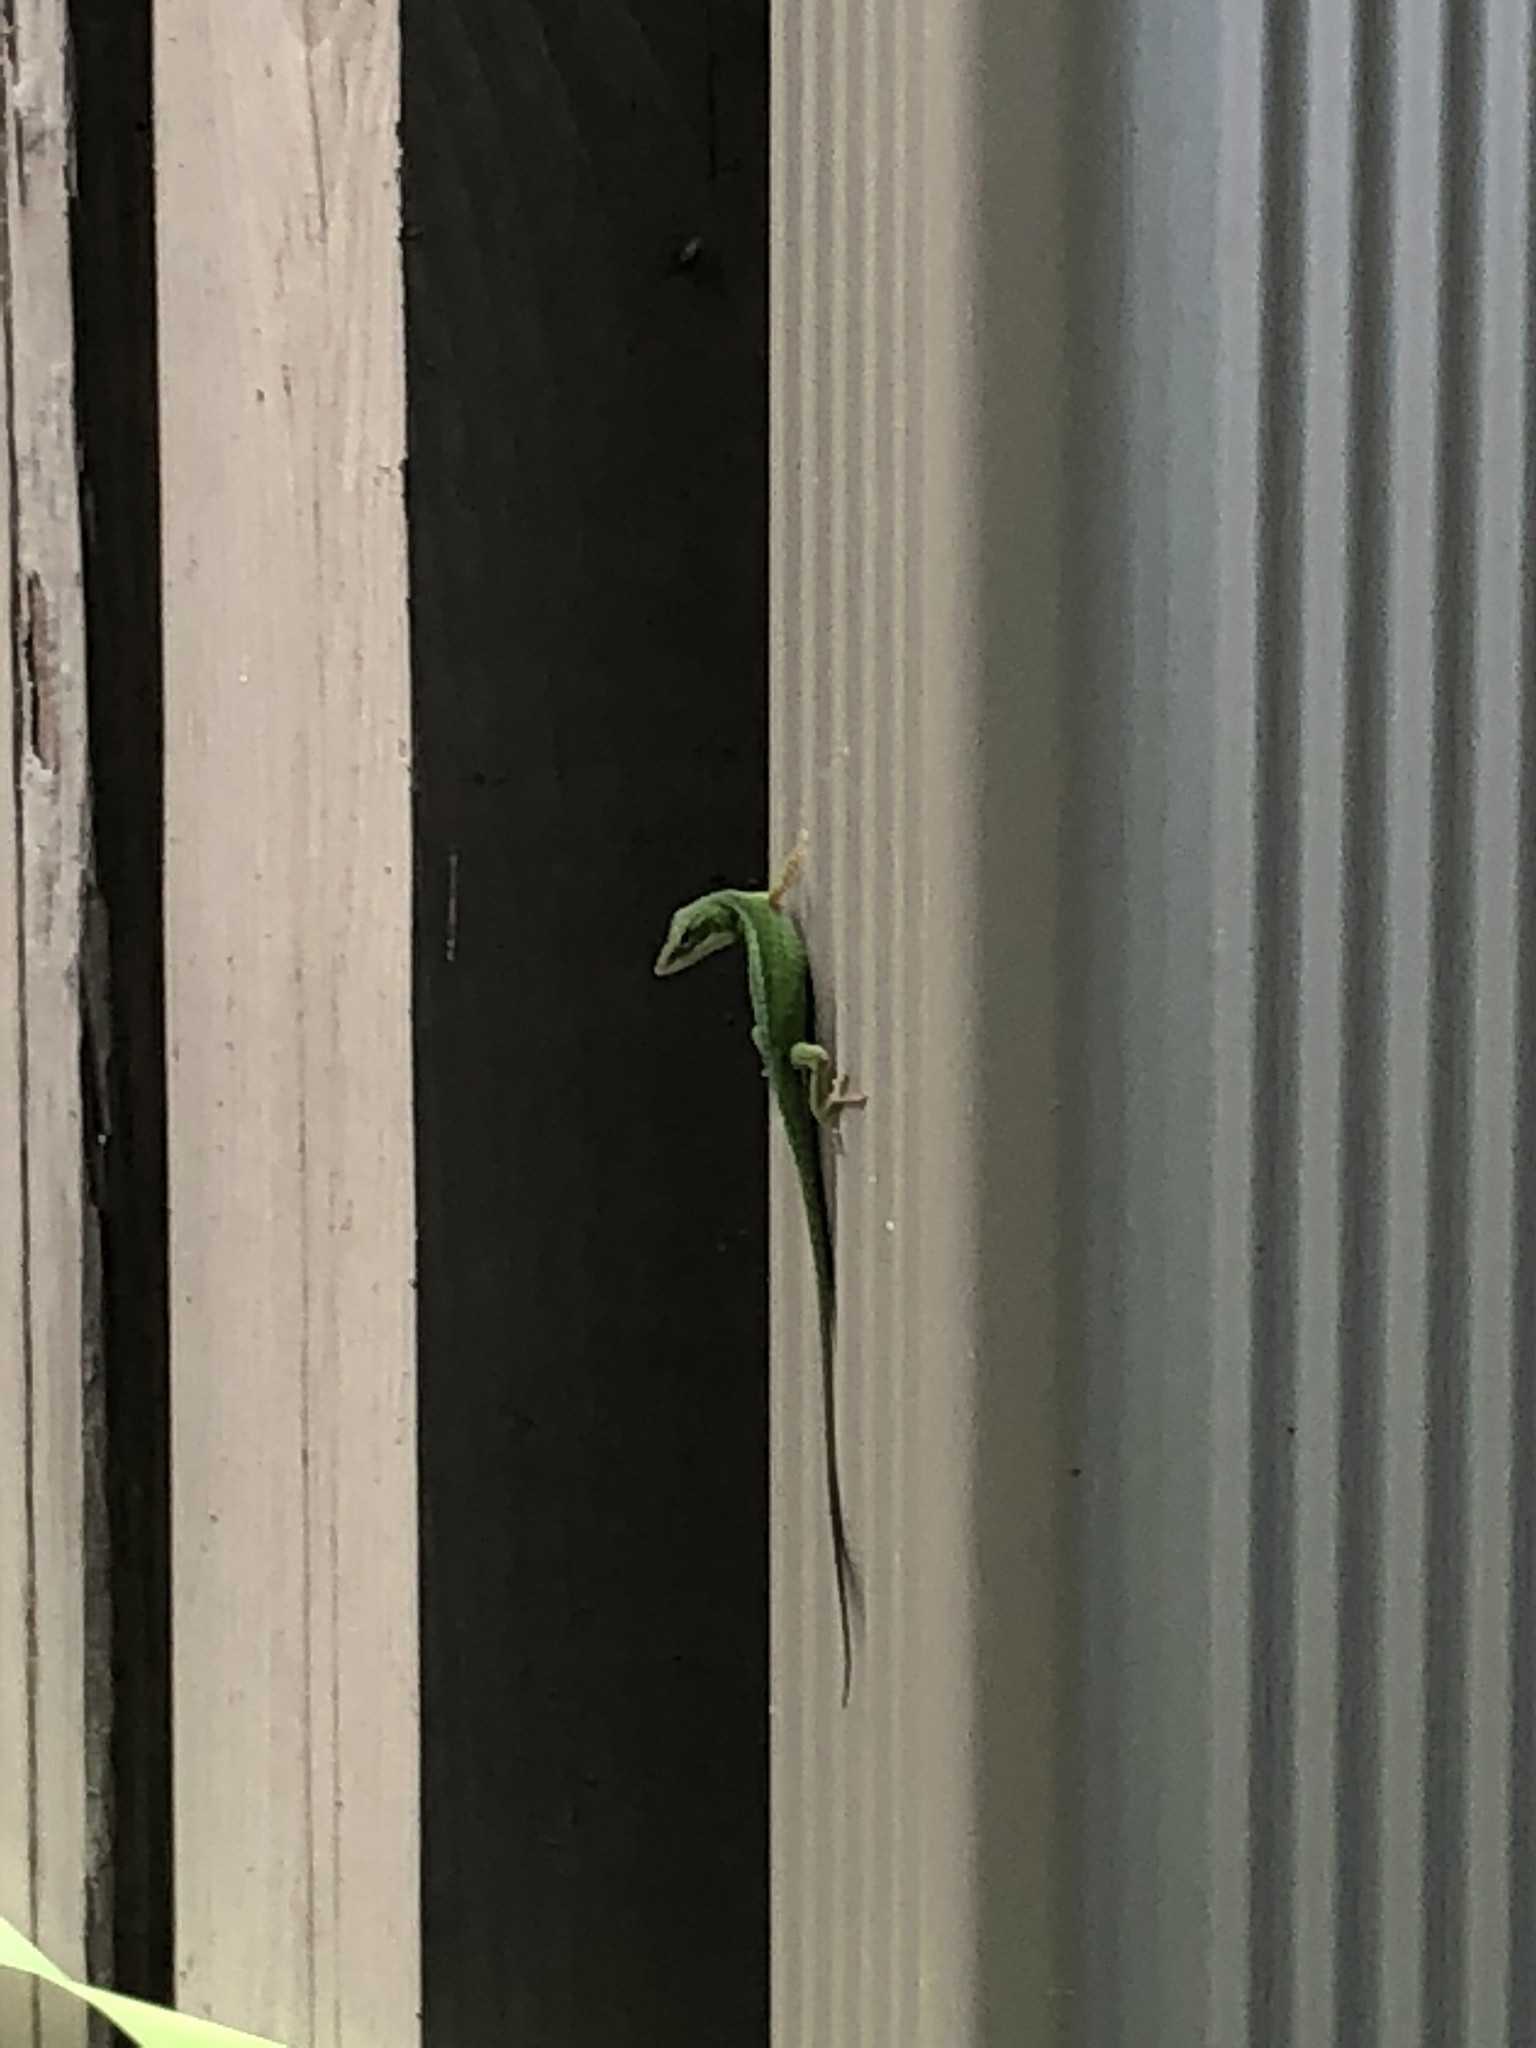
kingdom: Animalia
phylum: Chordata
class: Squamata
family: Dactyloidae
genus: Anolis
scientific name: Anolis carolinensis
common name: Green anole
